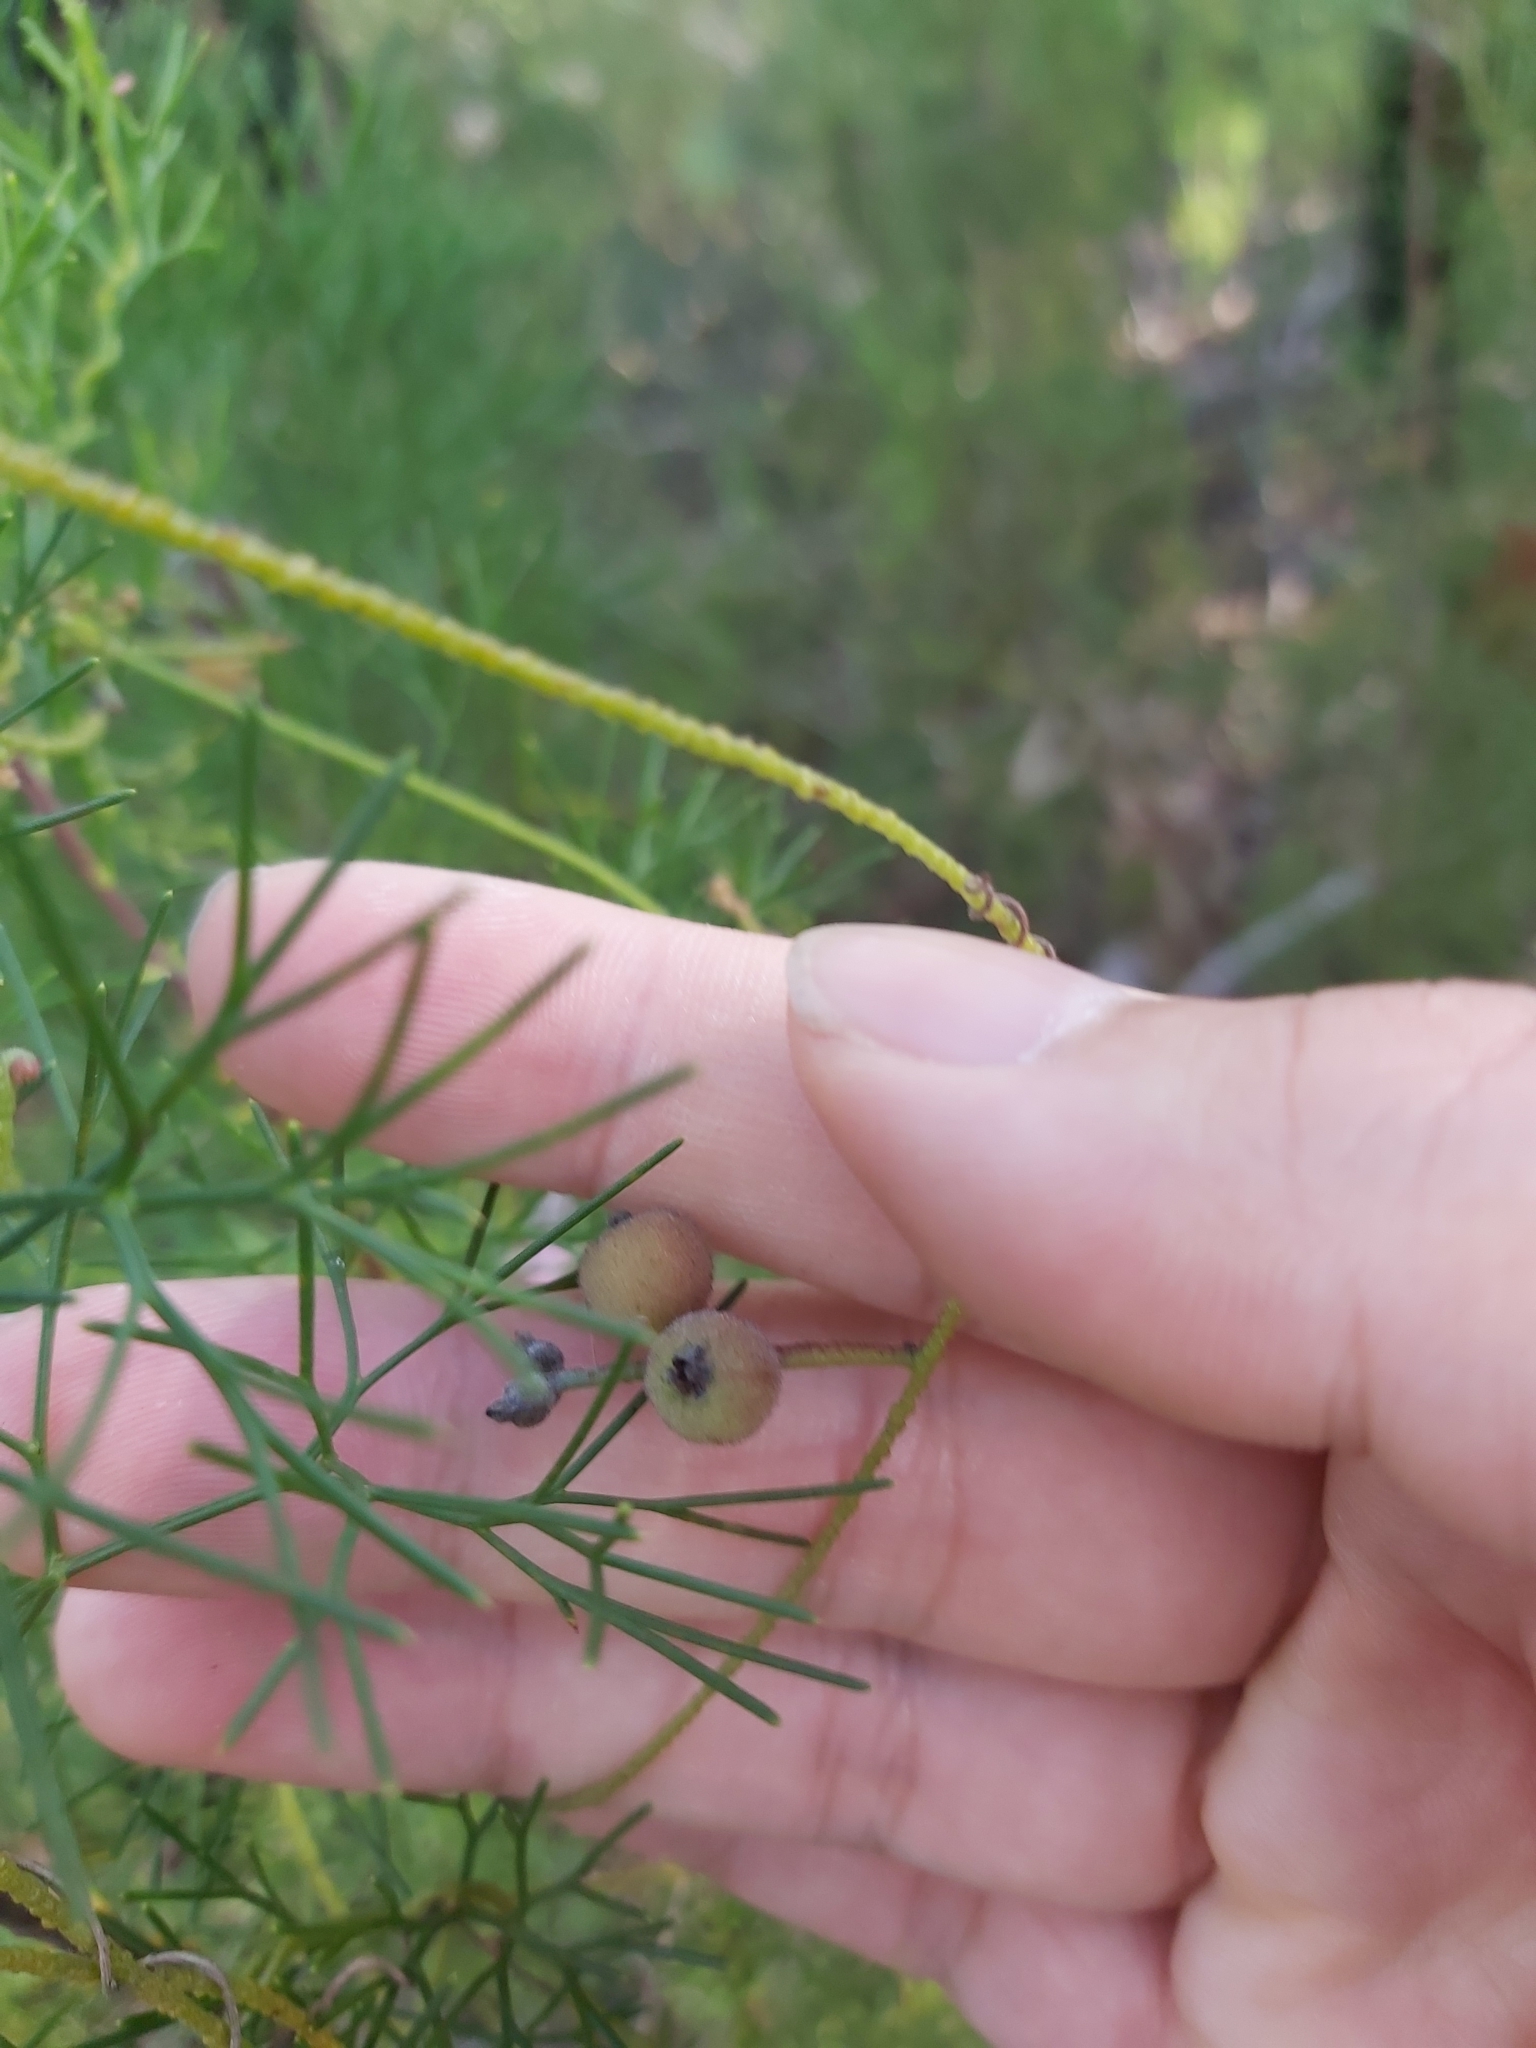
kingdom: Plantae
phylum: Tracheophyta
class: Magnoliopsida
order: Laurales
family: Lauraceae
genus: Cassytha
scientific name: Cassytha pubescens
